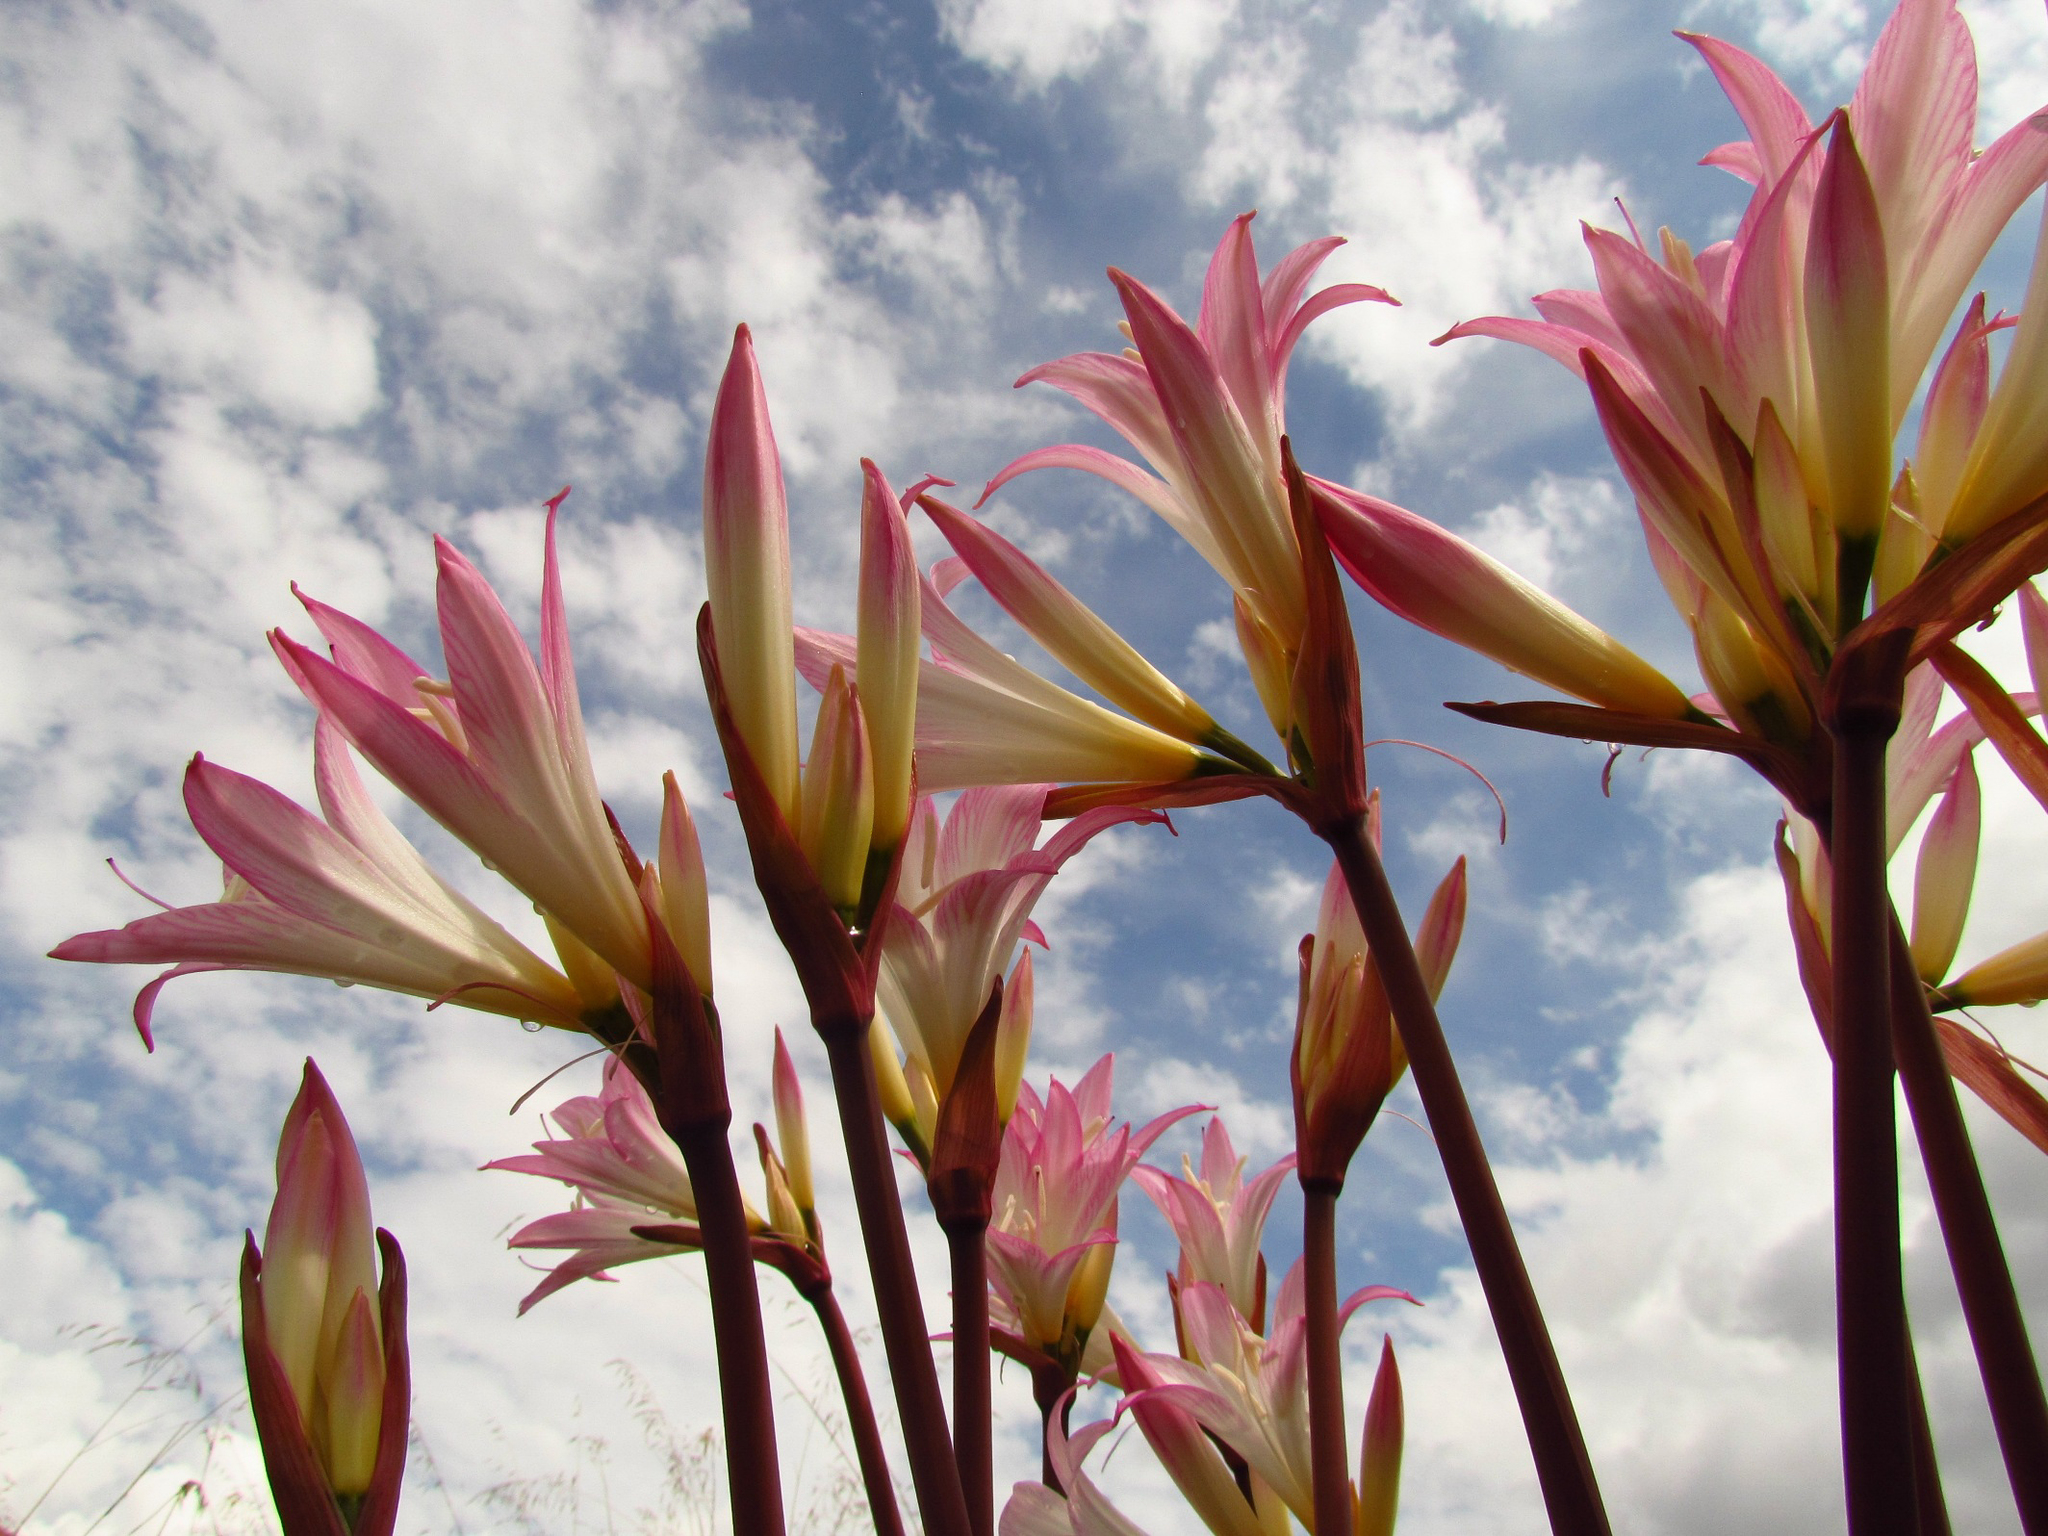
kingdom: Plantae
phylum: Tracheophyta
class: Liliopsida
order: Asparagales
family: Amaryllidaceae
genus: Amaryllis
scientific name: Amaryllis belladonna
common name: Jersey lily
